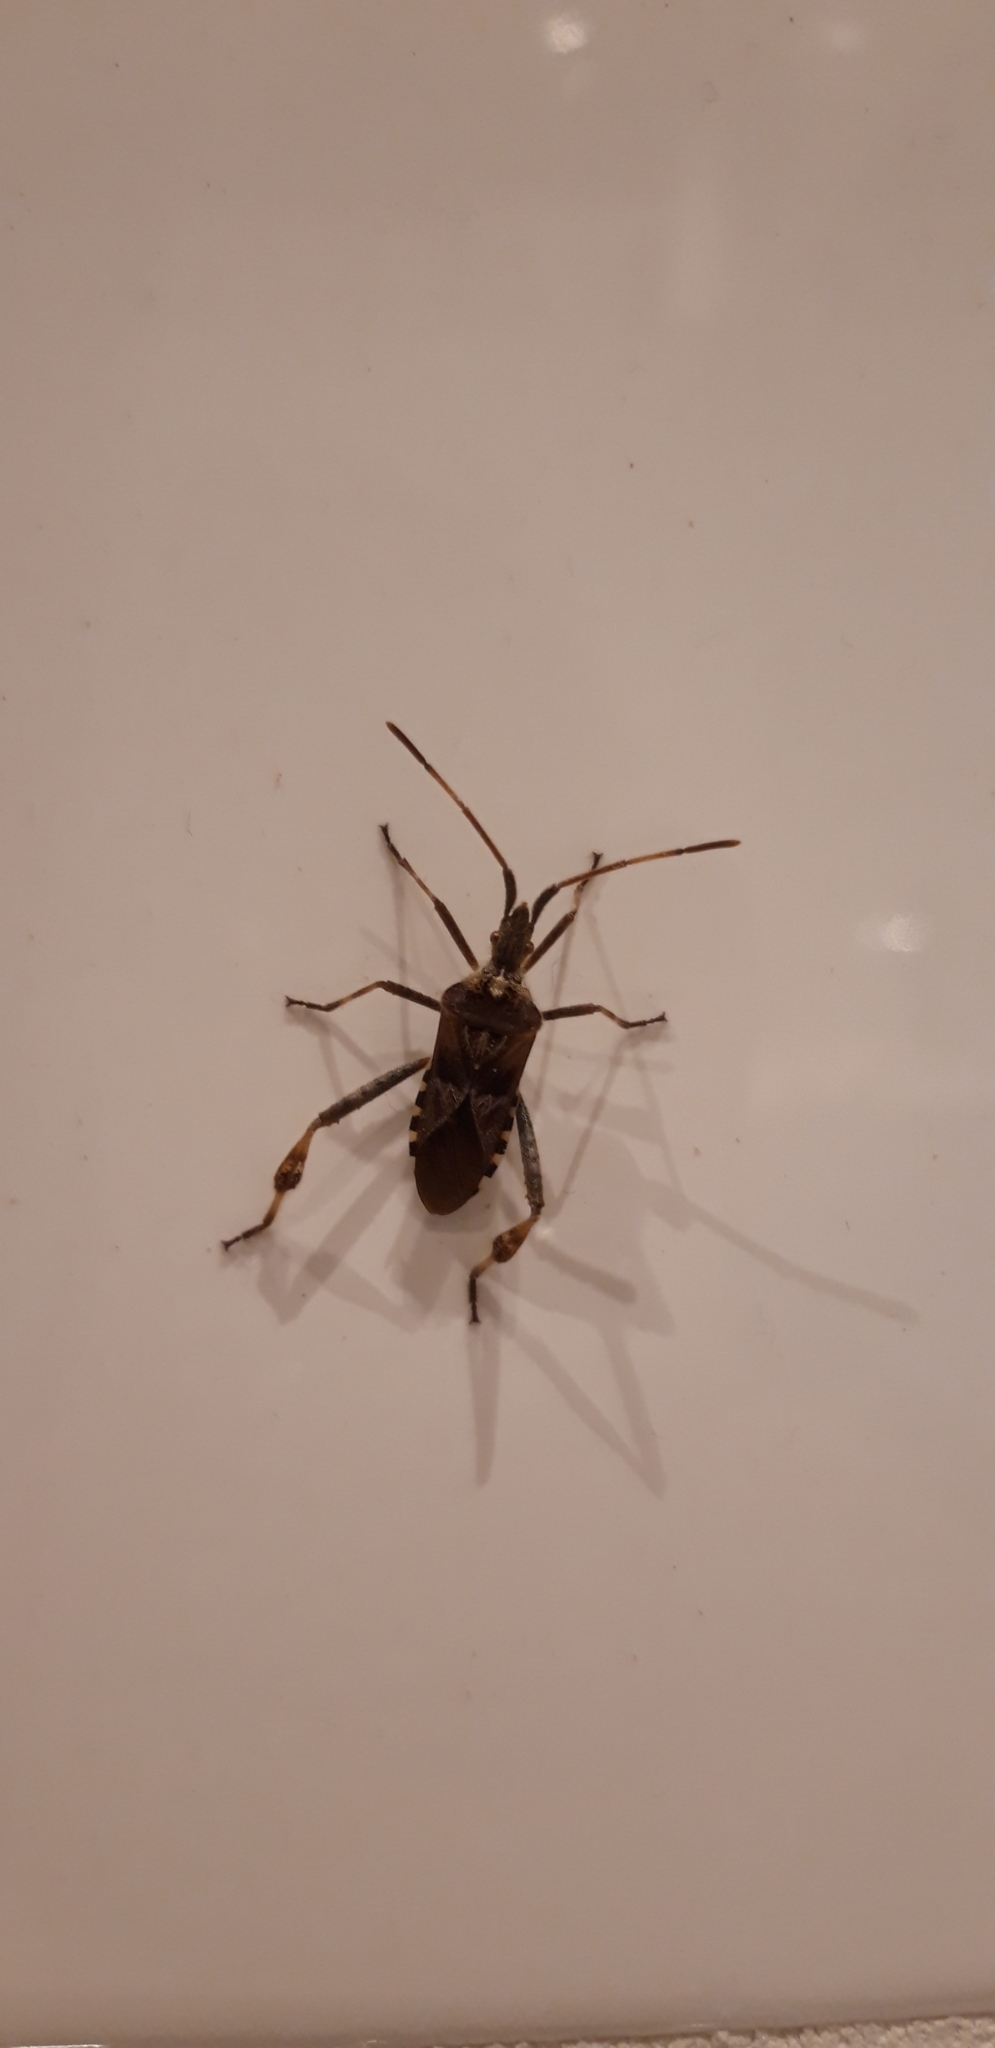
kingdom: Animalia
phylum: Arthropoda
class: Insecta
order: Hemiptera
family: Coreidae
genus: Leptoglossus
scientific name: Leptoglossus occidentalis
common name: Western conifer-seed bug
